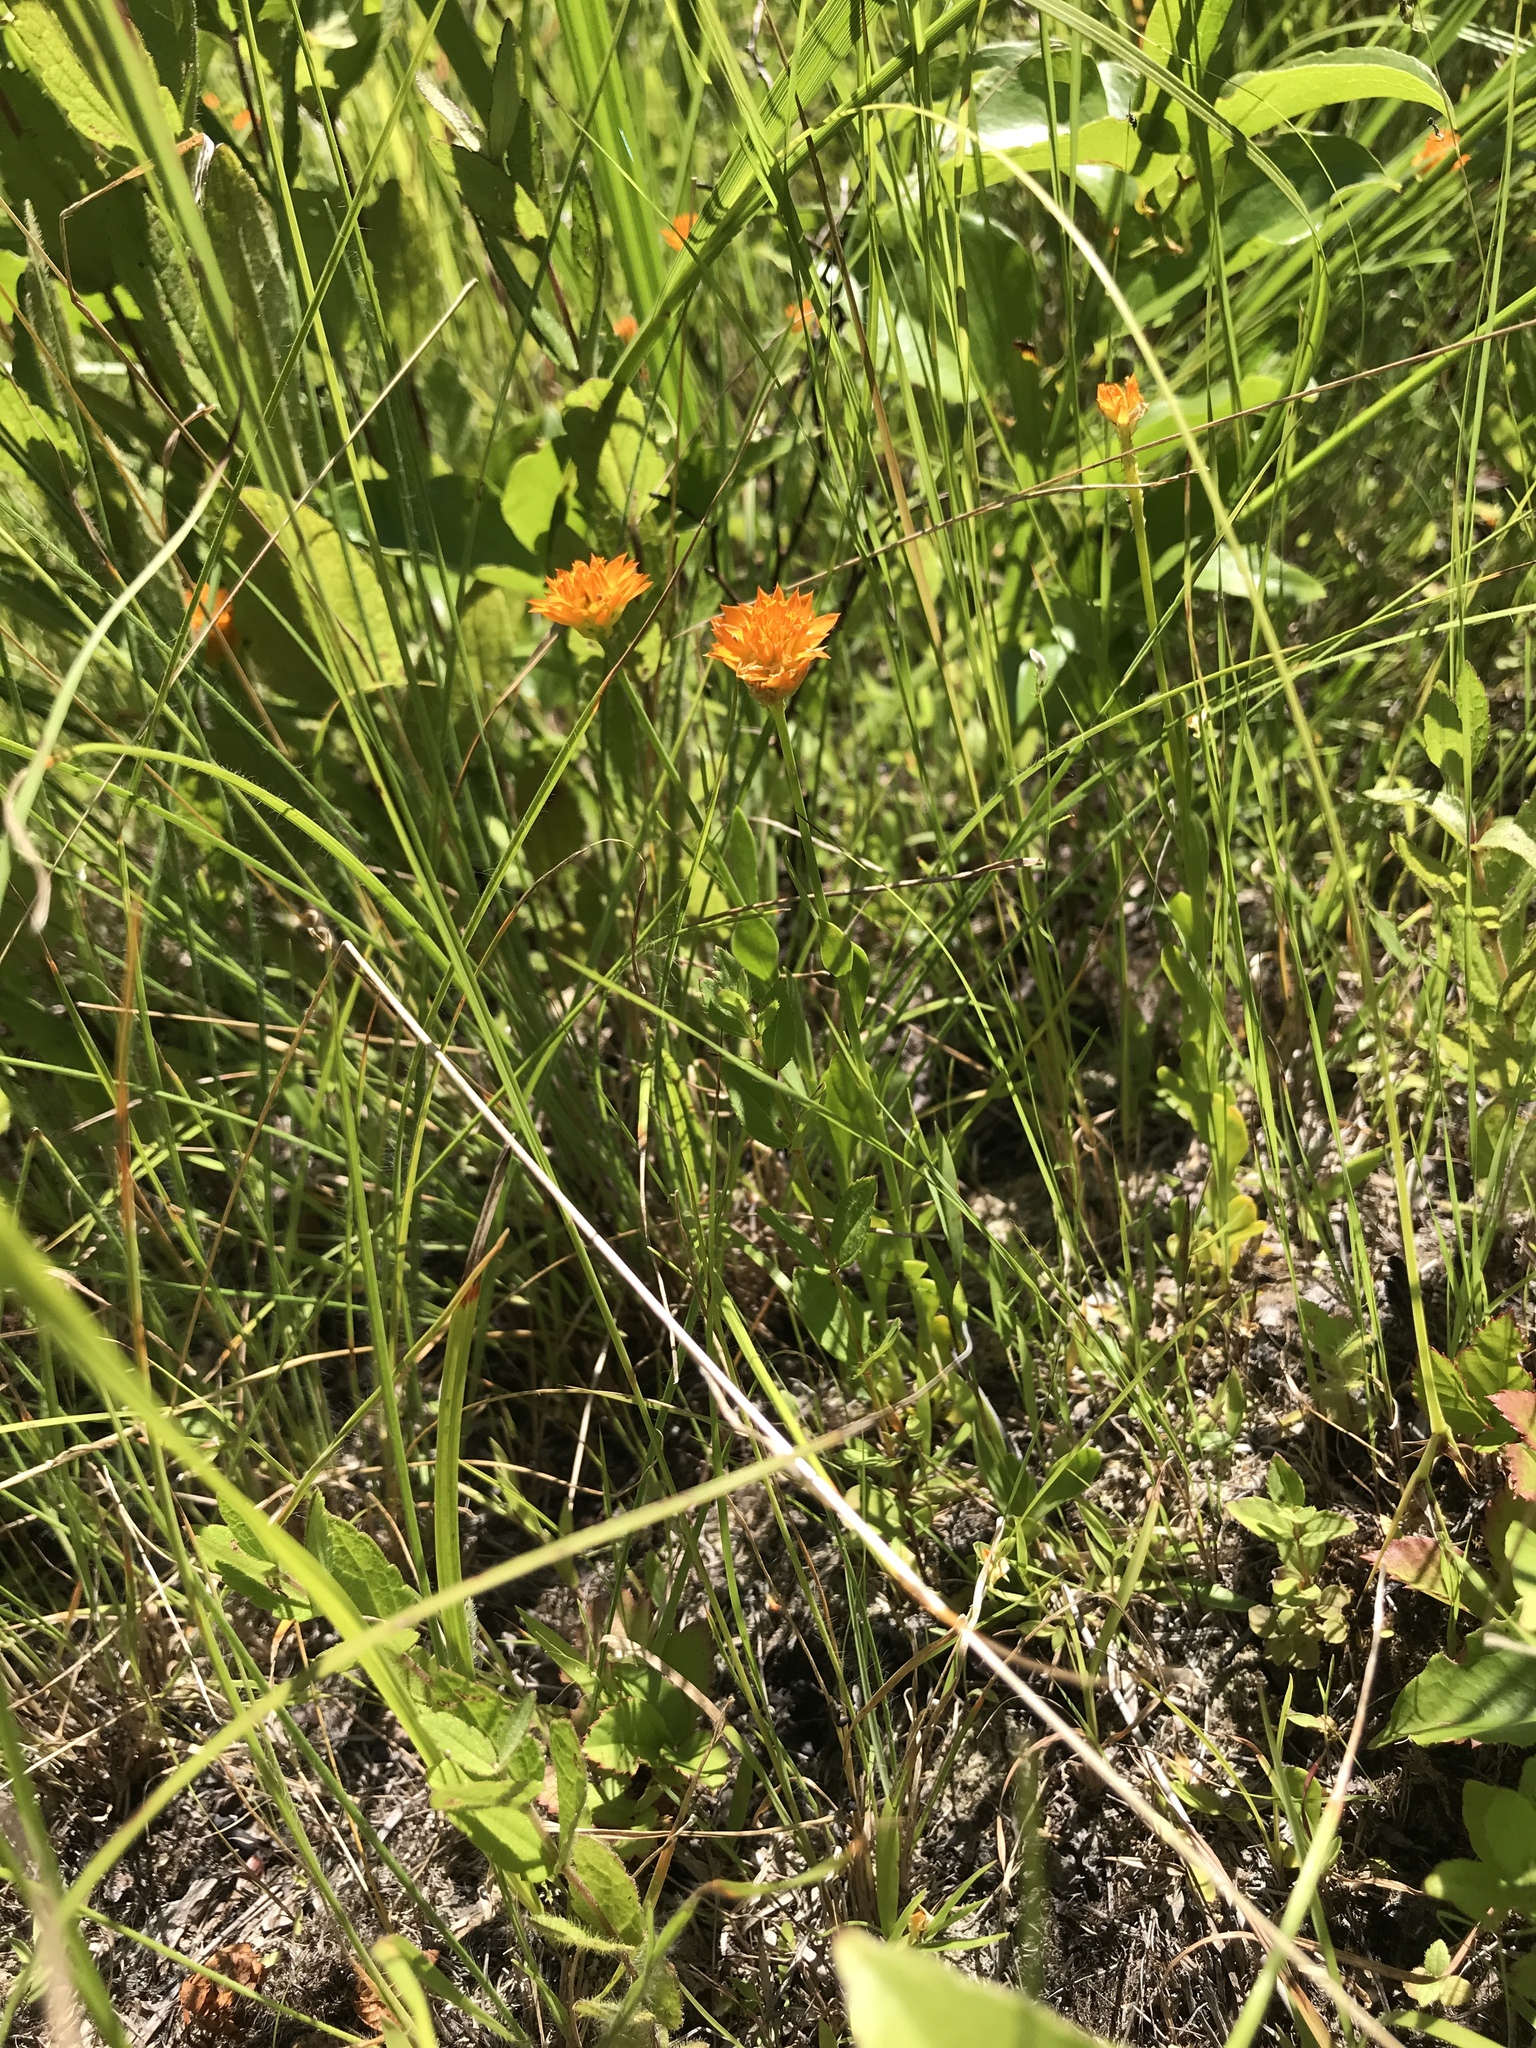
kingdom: Plantae
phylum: Tracheophyta
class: Magnoliopsida
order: Fabales
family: Polygalaceae
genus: Polygala
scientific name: Polygala lutea
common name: Orange milkwort
